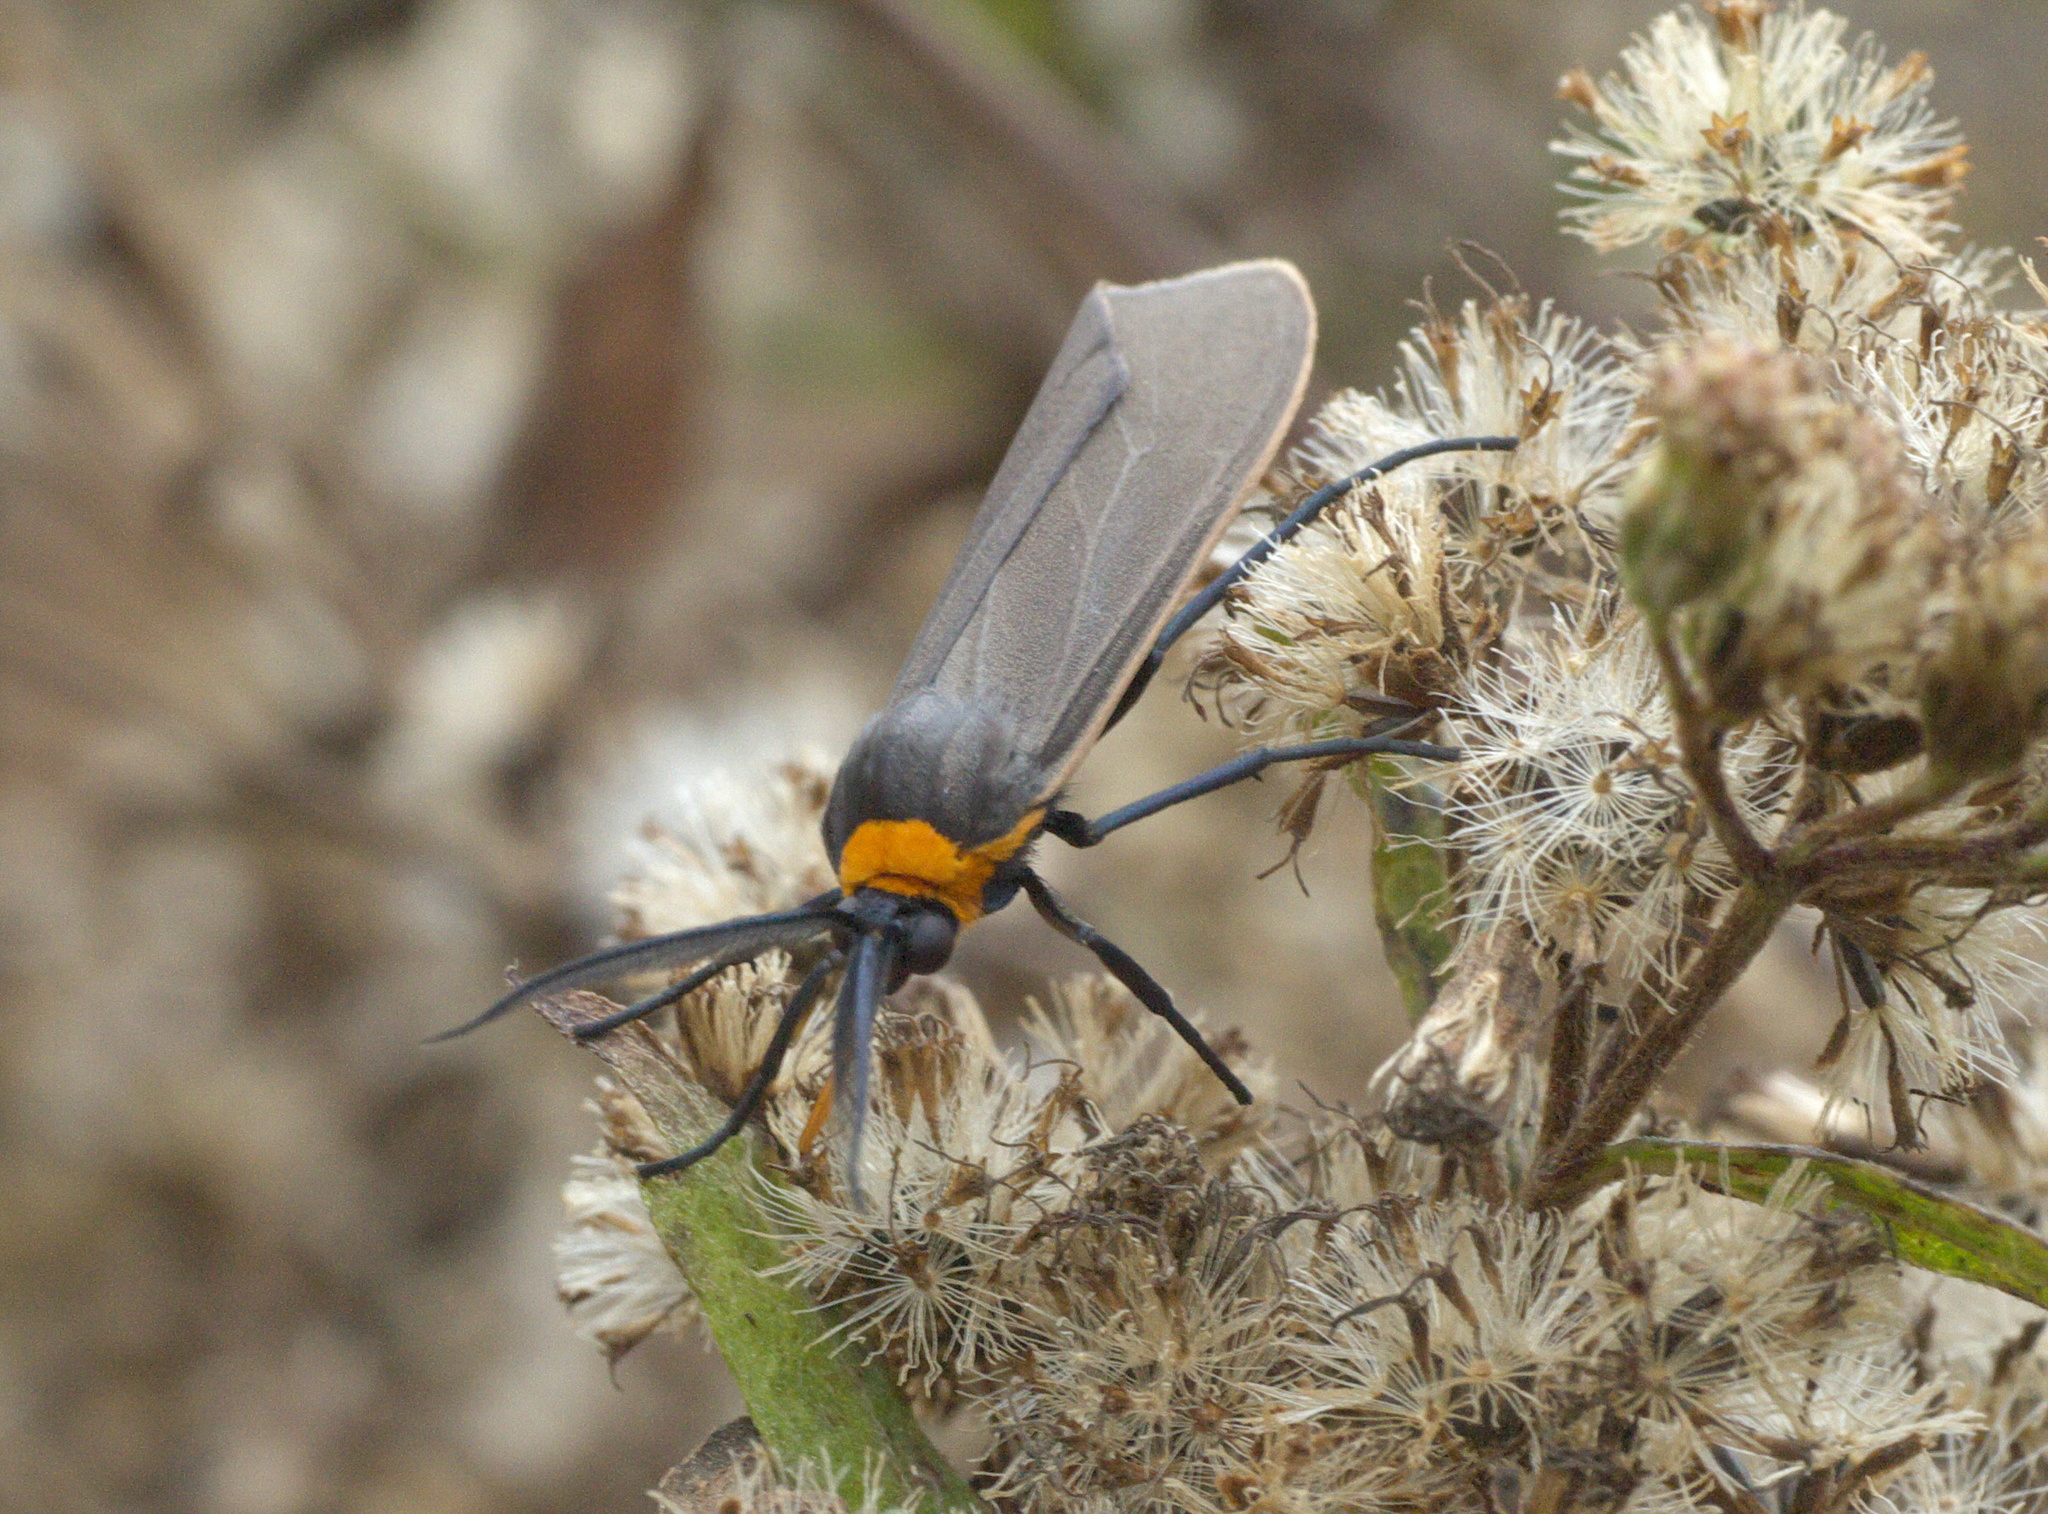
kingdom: Animalia
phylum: Arthropoda
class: Insecta
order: Lepidoptera
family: Erebidae
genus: Cisseps
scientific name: Cisseps fulvicollis
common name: Yellow-collared scape moth
